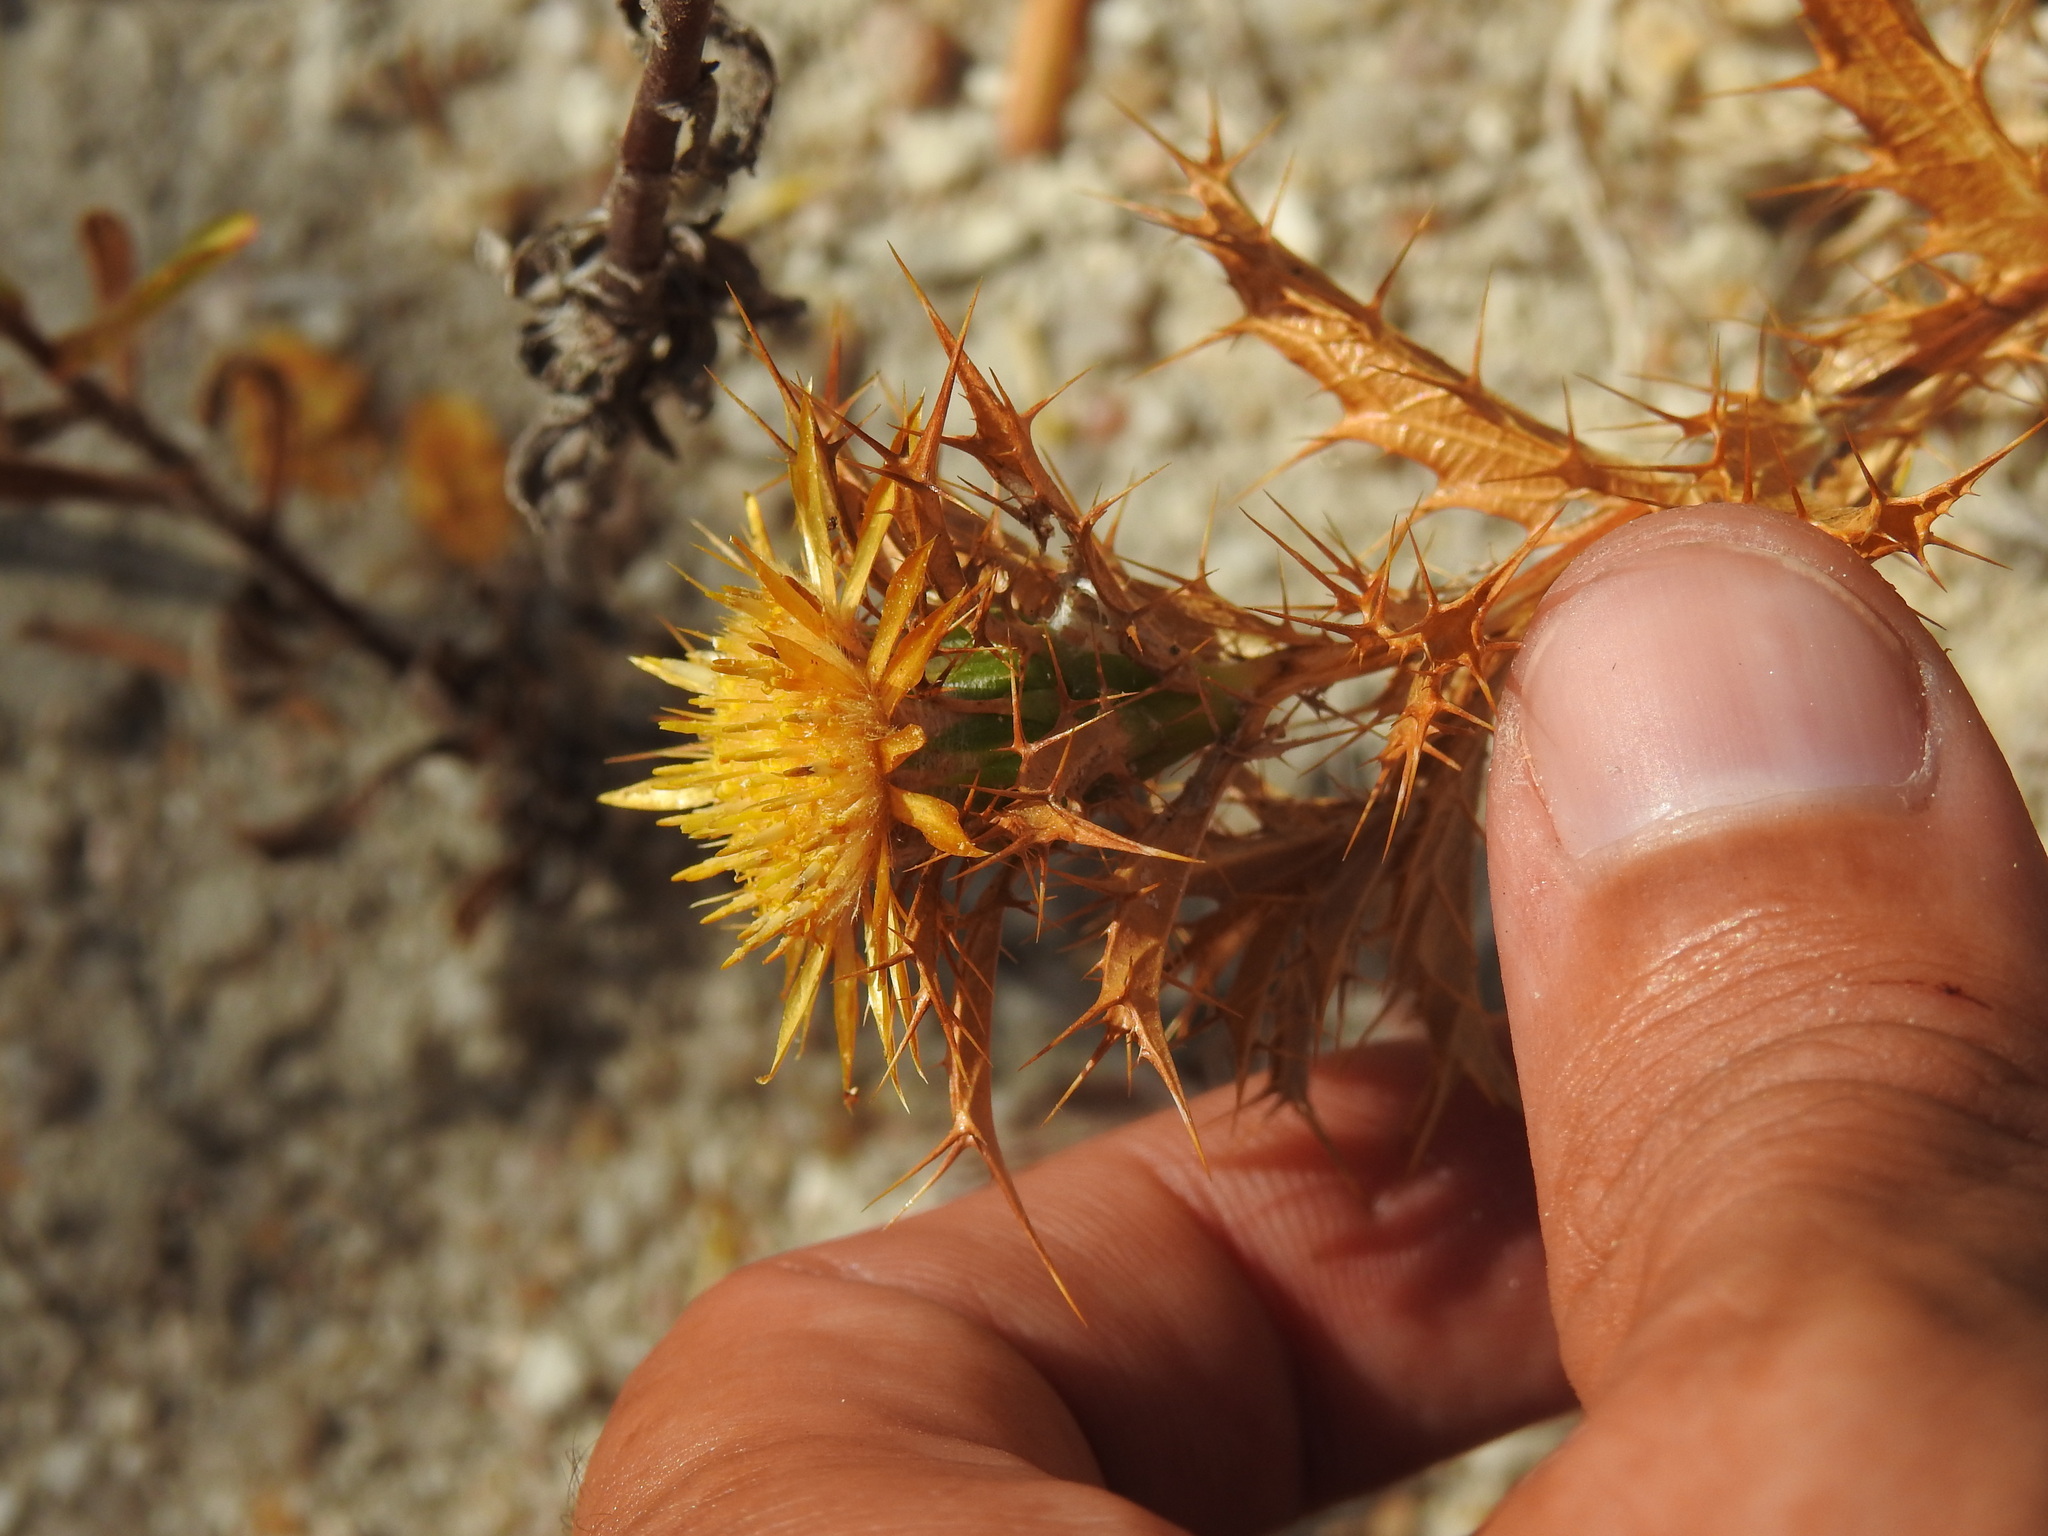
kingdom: Plantae
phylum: Tracheophyta
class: Magnoliopsida
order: Asterales
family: Asteraceae
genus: Carlina
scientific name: Carlina hispanica
